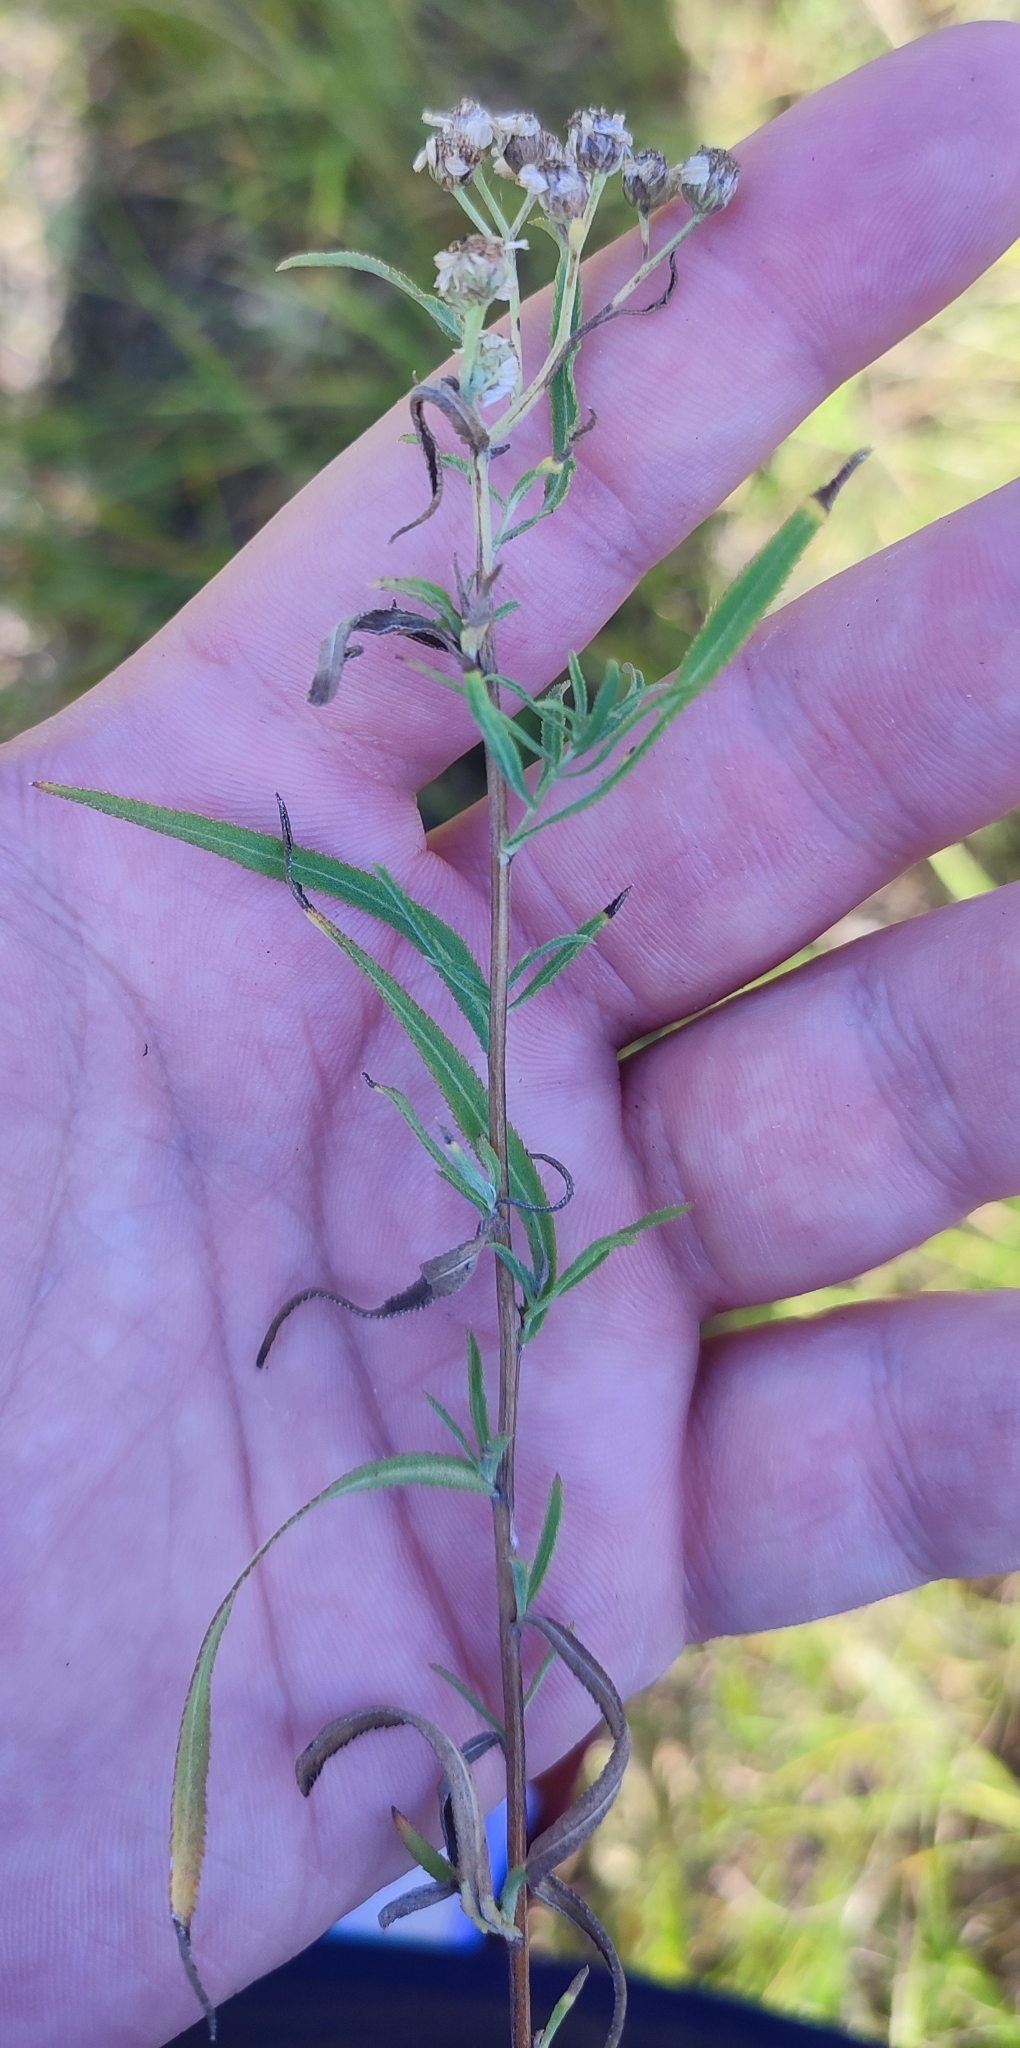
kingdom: Plantae
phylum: Tracheophyta
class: Magnoliopsida
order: Asterales
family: Asteraceae
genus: Achillea
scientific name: Achillea salicifolia
